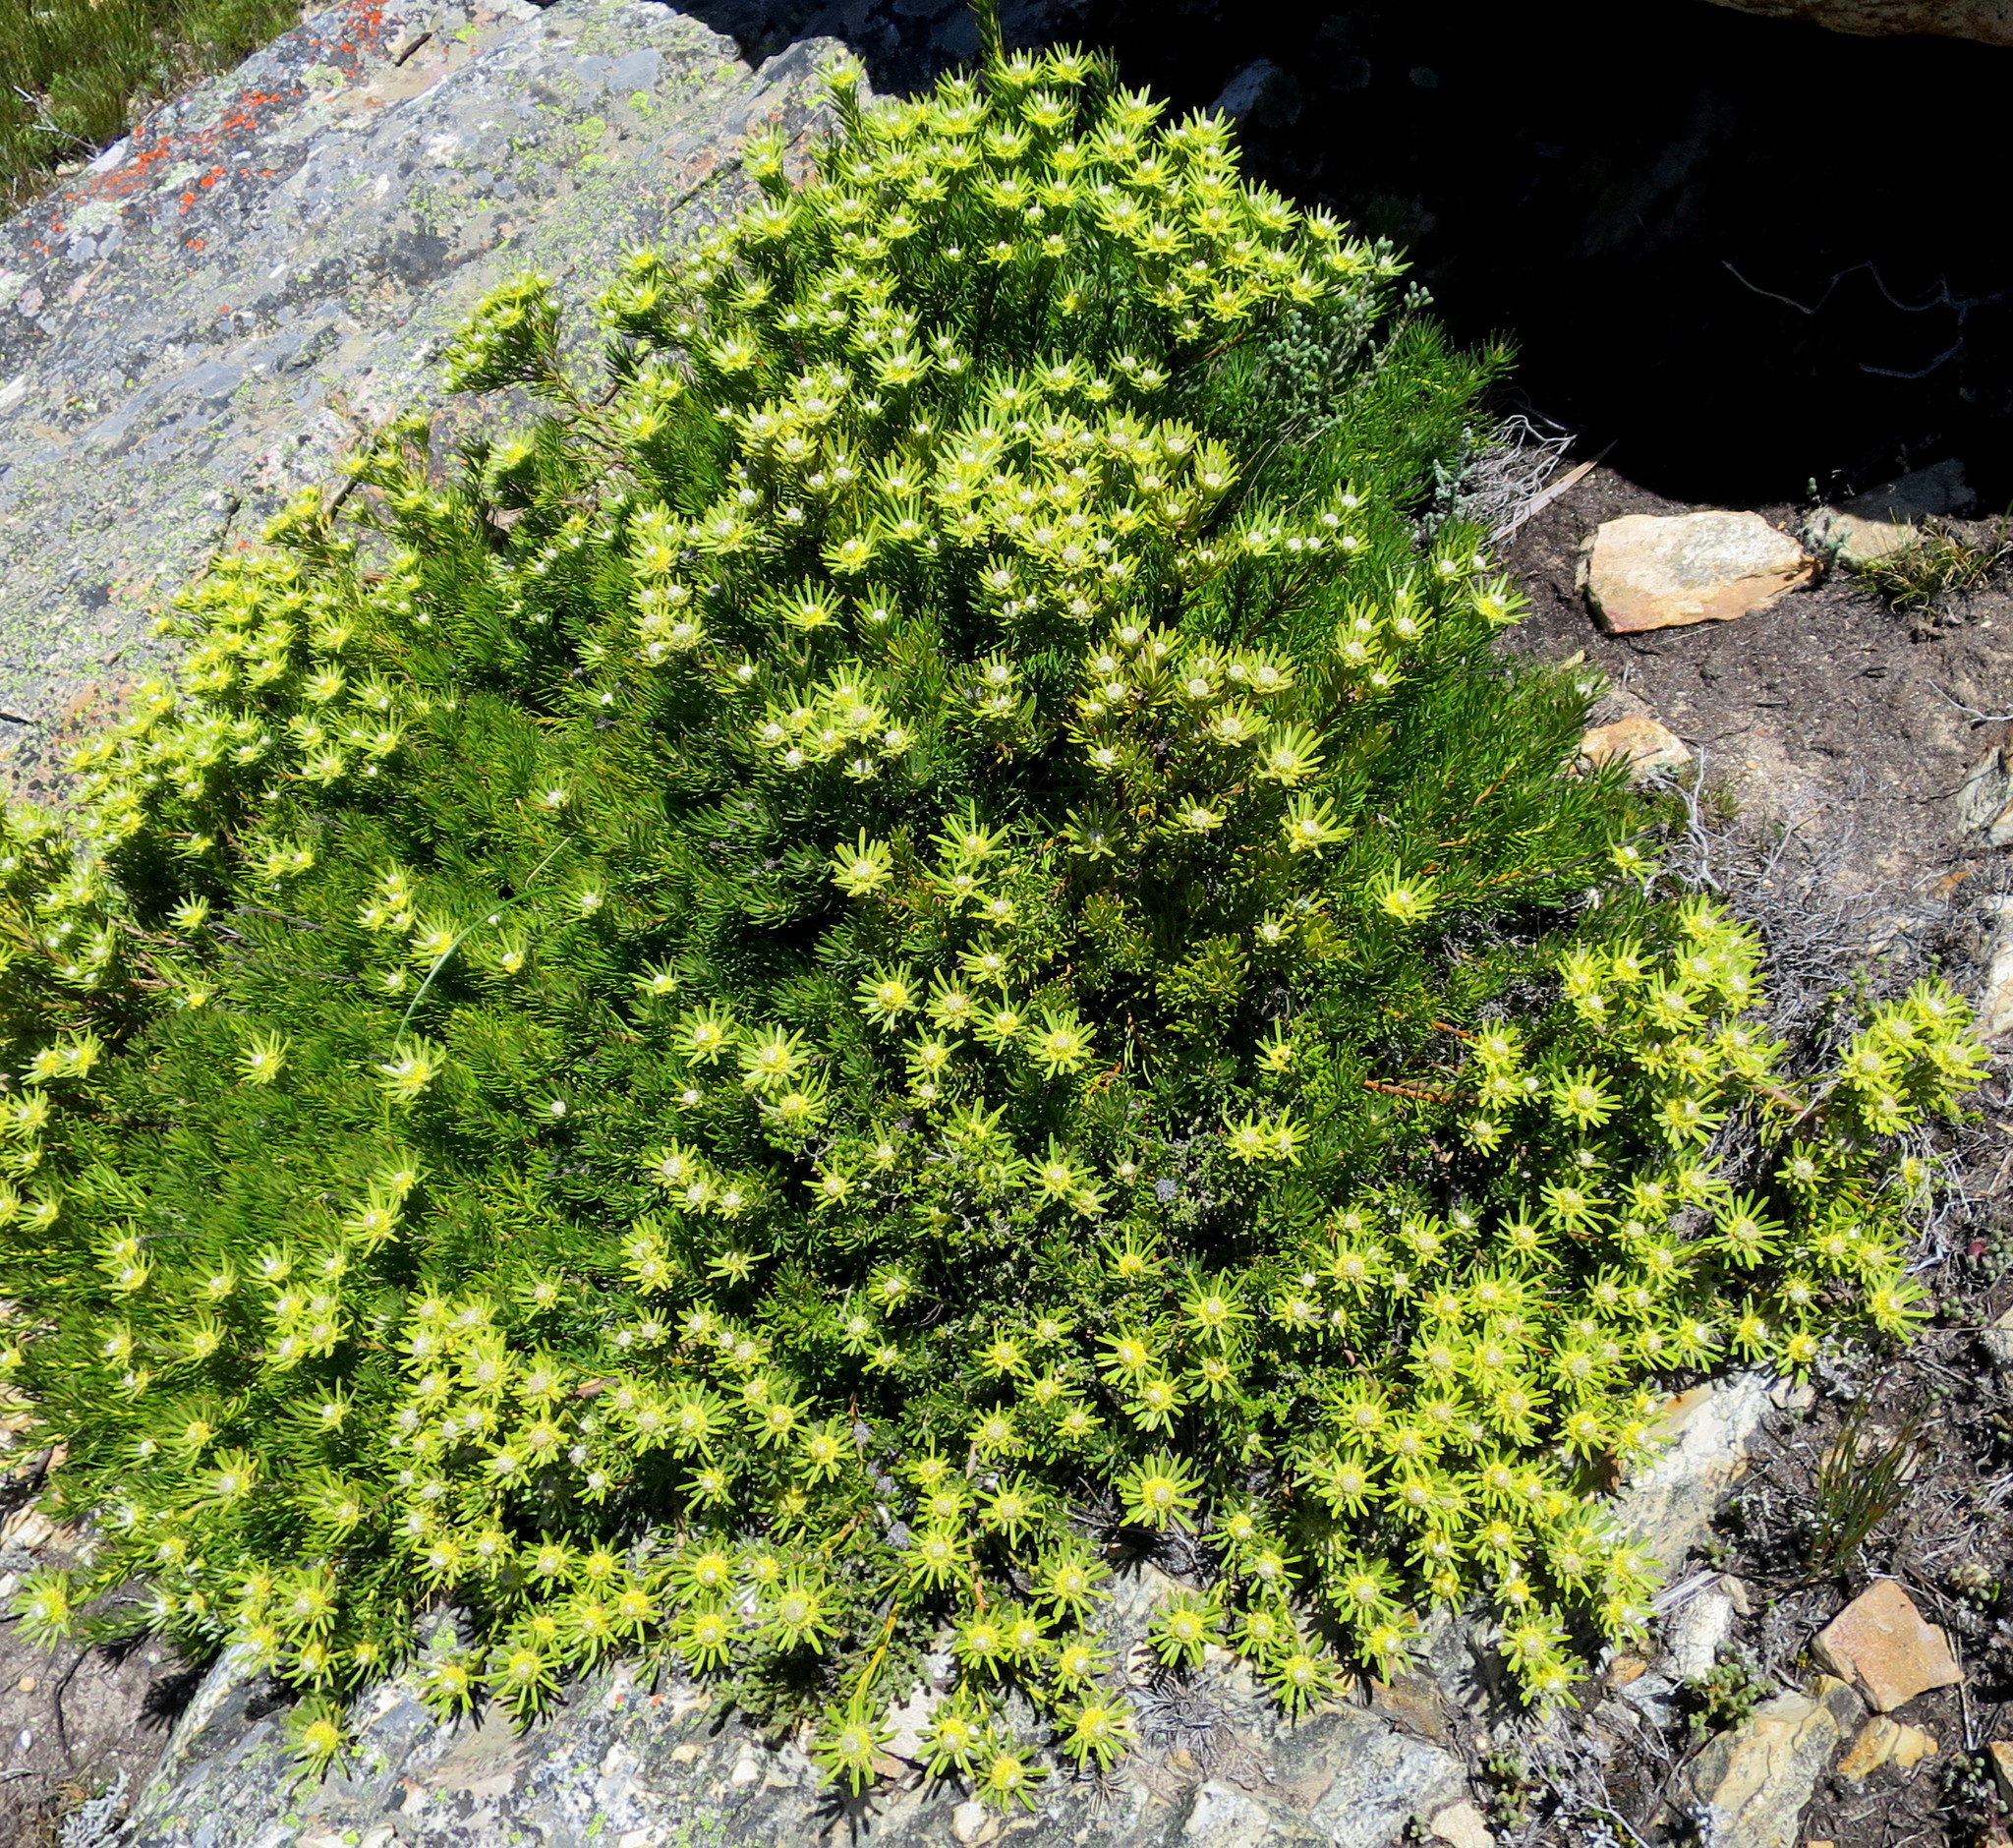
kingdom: Plantae
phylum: Tracheophyta
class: Magnoliopsida
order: Proteales
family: Proteaceae
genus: Leucadendron
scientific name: Leucadendron dregei
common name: Summit conebush
